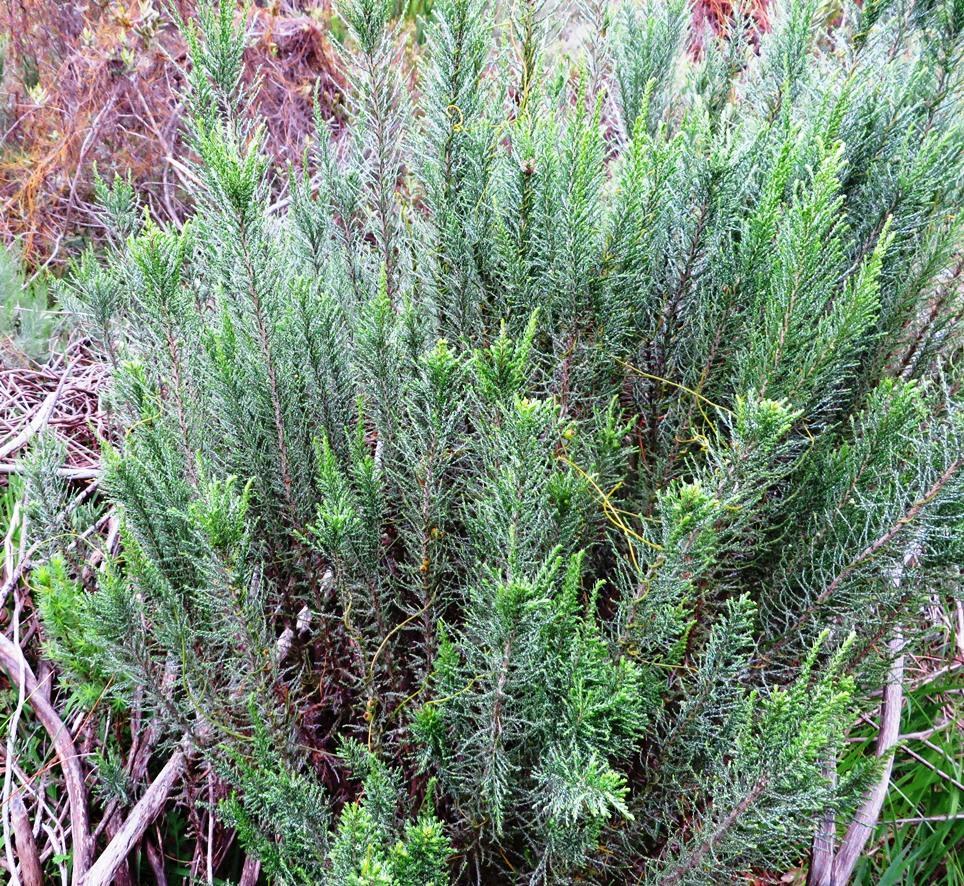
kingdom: Plantae
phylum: Tracheophyta
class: Magnoliopsida
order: Asterales
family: Asteraceae
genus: Dicerothamnus
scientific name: Dicerothamnus rhinocerotis
